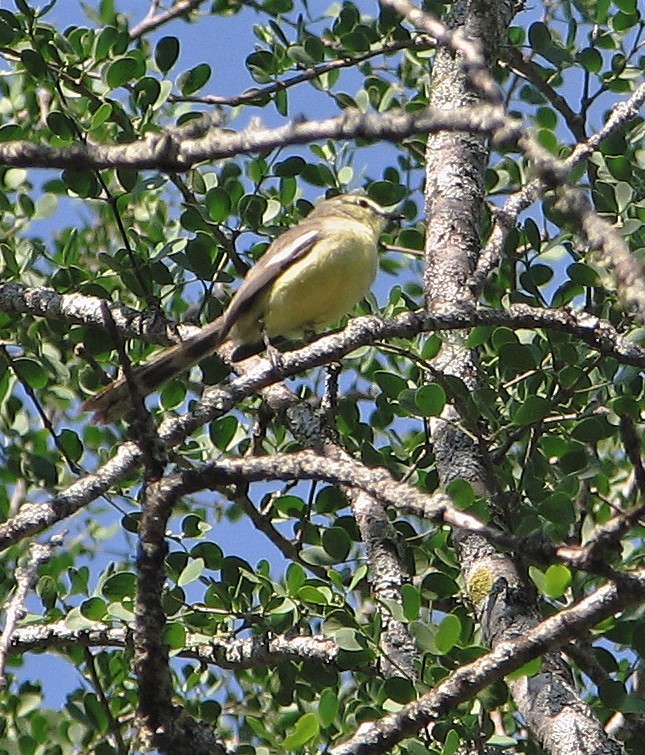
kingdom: Animalia
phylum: Chordata
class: Aves
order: Passeriformes
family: Tyrannidae
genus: Stigmatura
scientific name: Stigmatura budytoides
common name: Greater wagtail-tyrant
